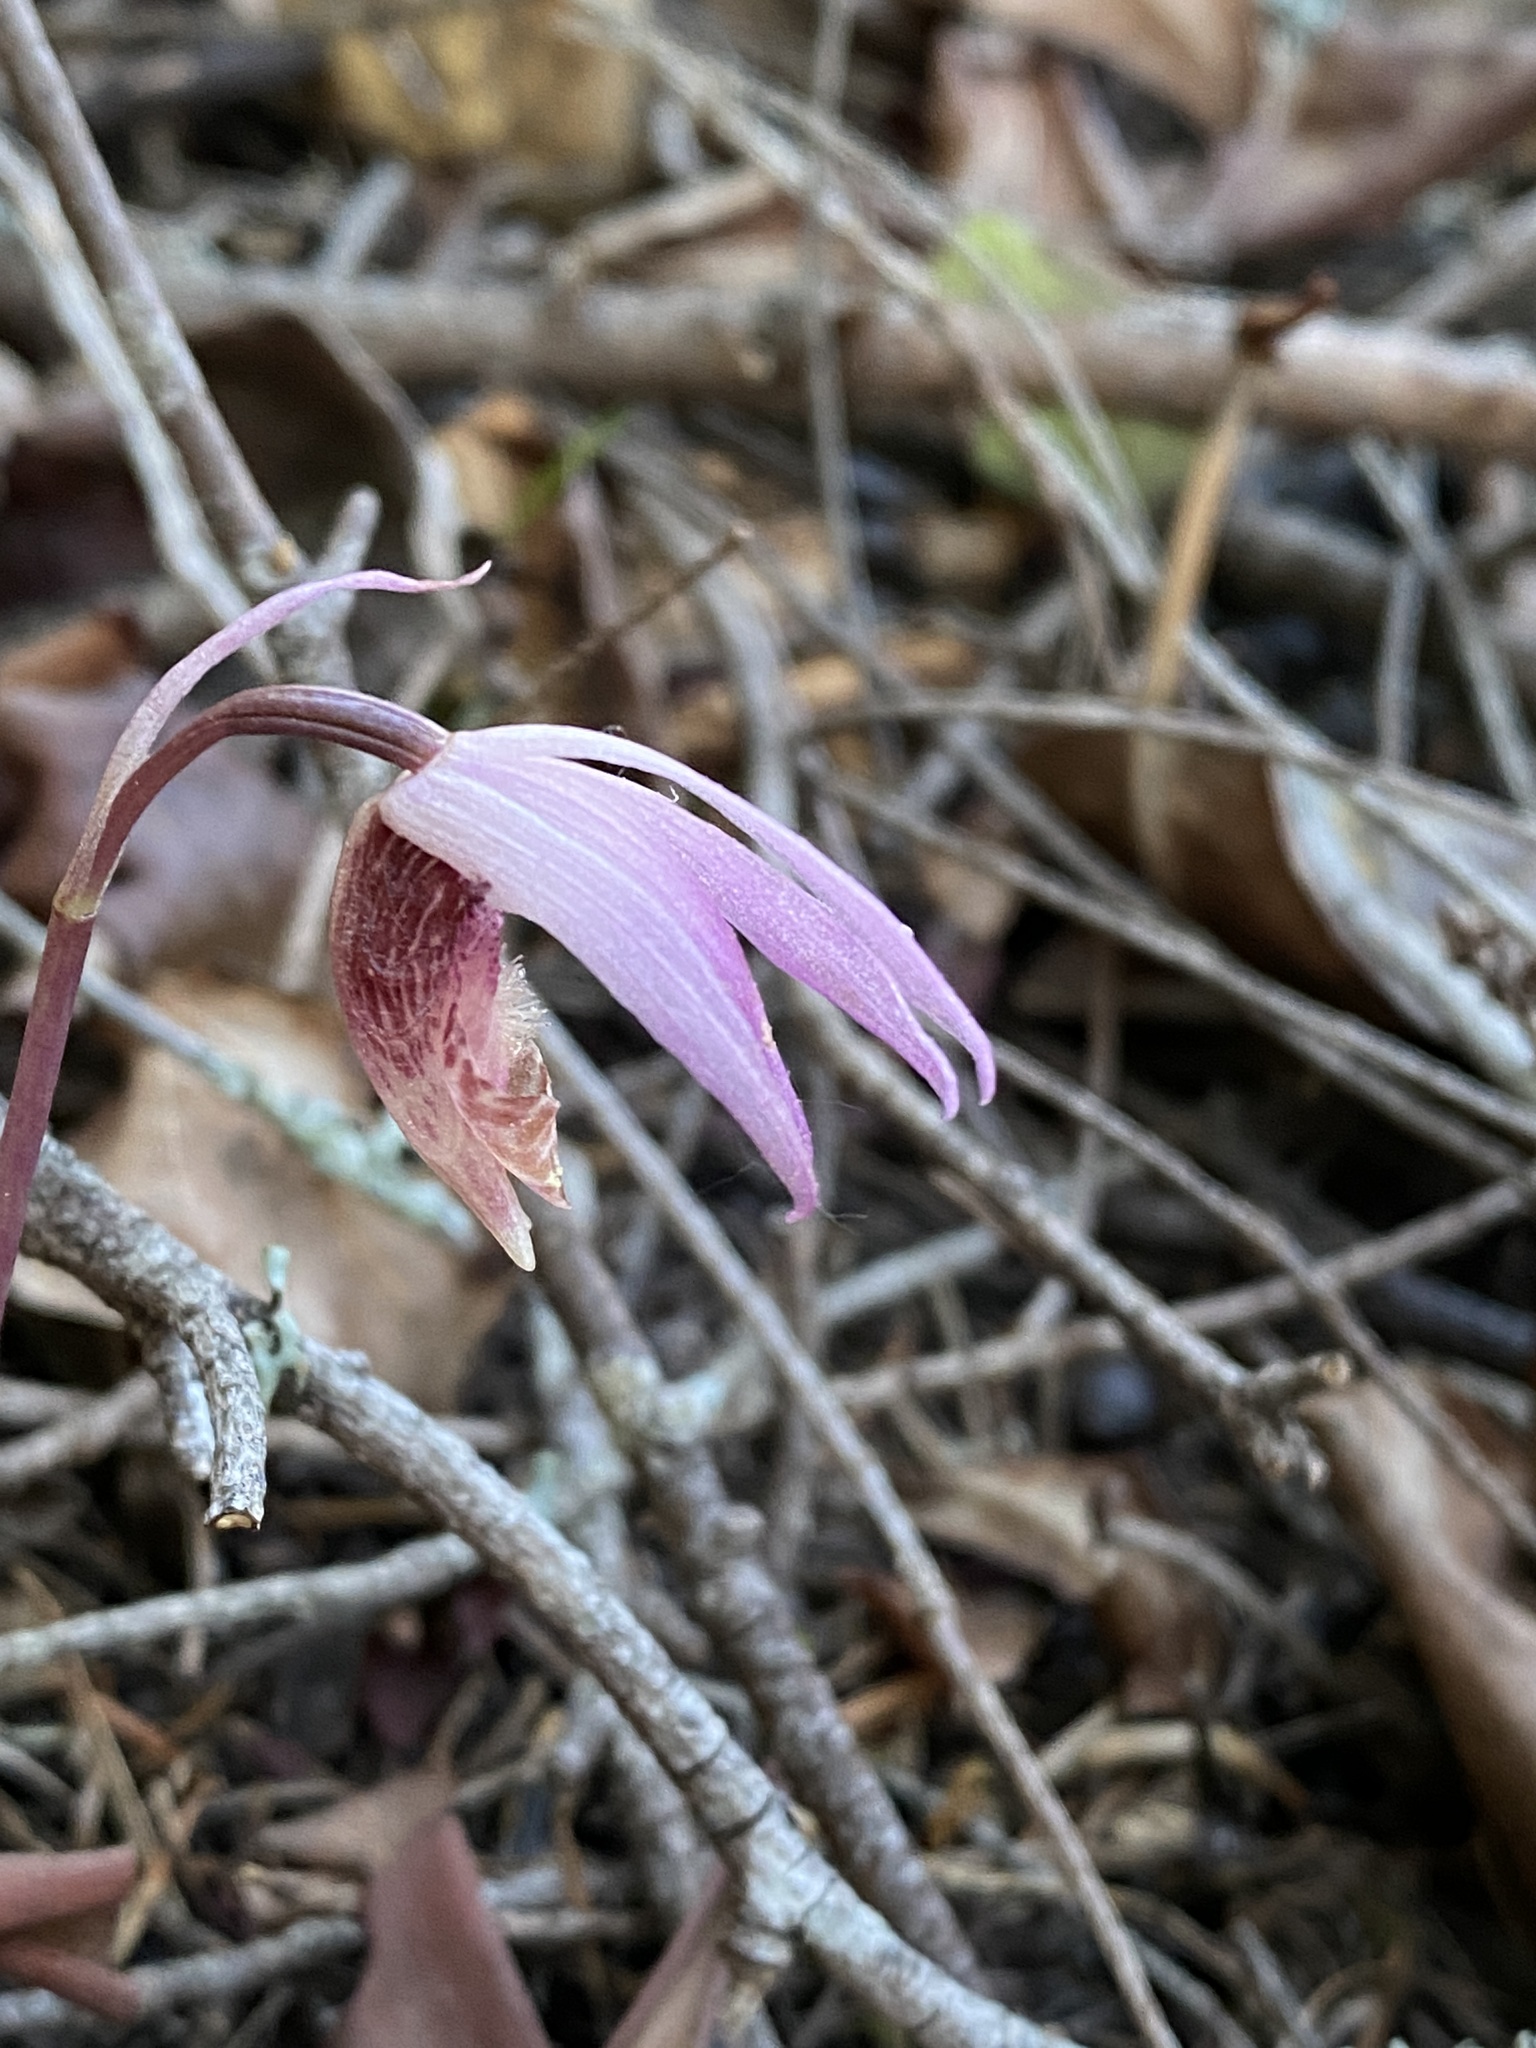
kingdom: Plantae
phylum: Tracheophyta
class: Liliopsida
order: Asparagales
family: Orchidaceae
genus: Calypso
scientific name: Calypso bulbosa
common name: Calypso
